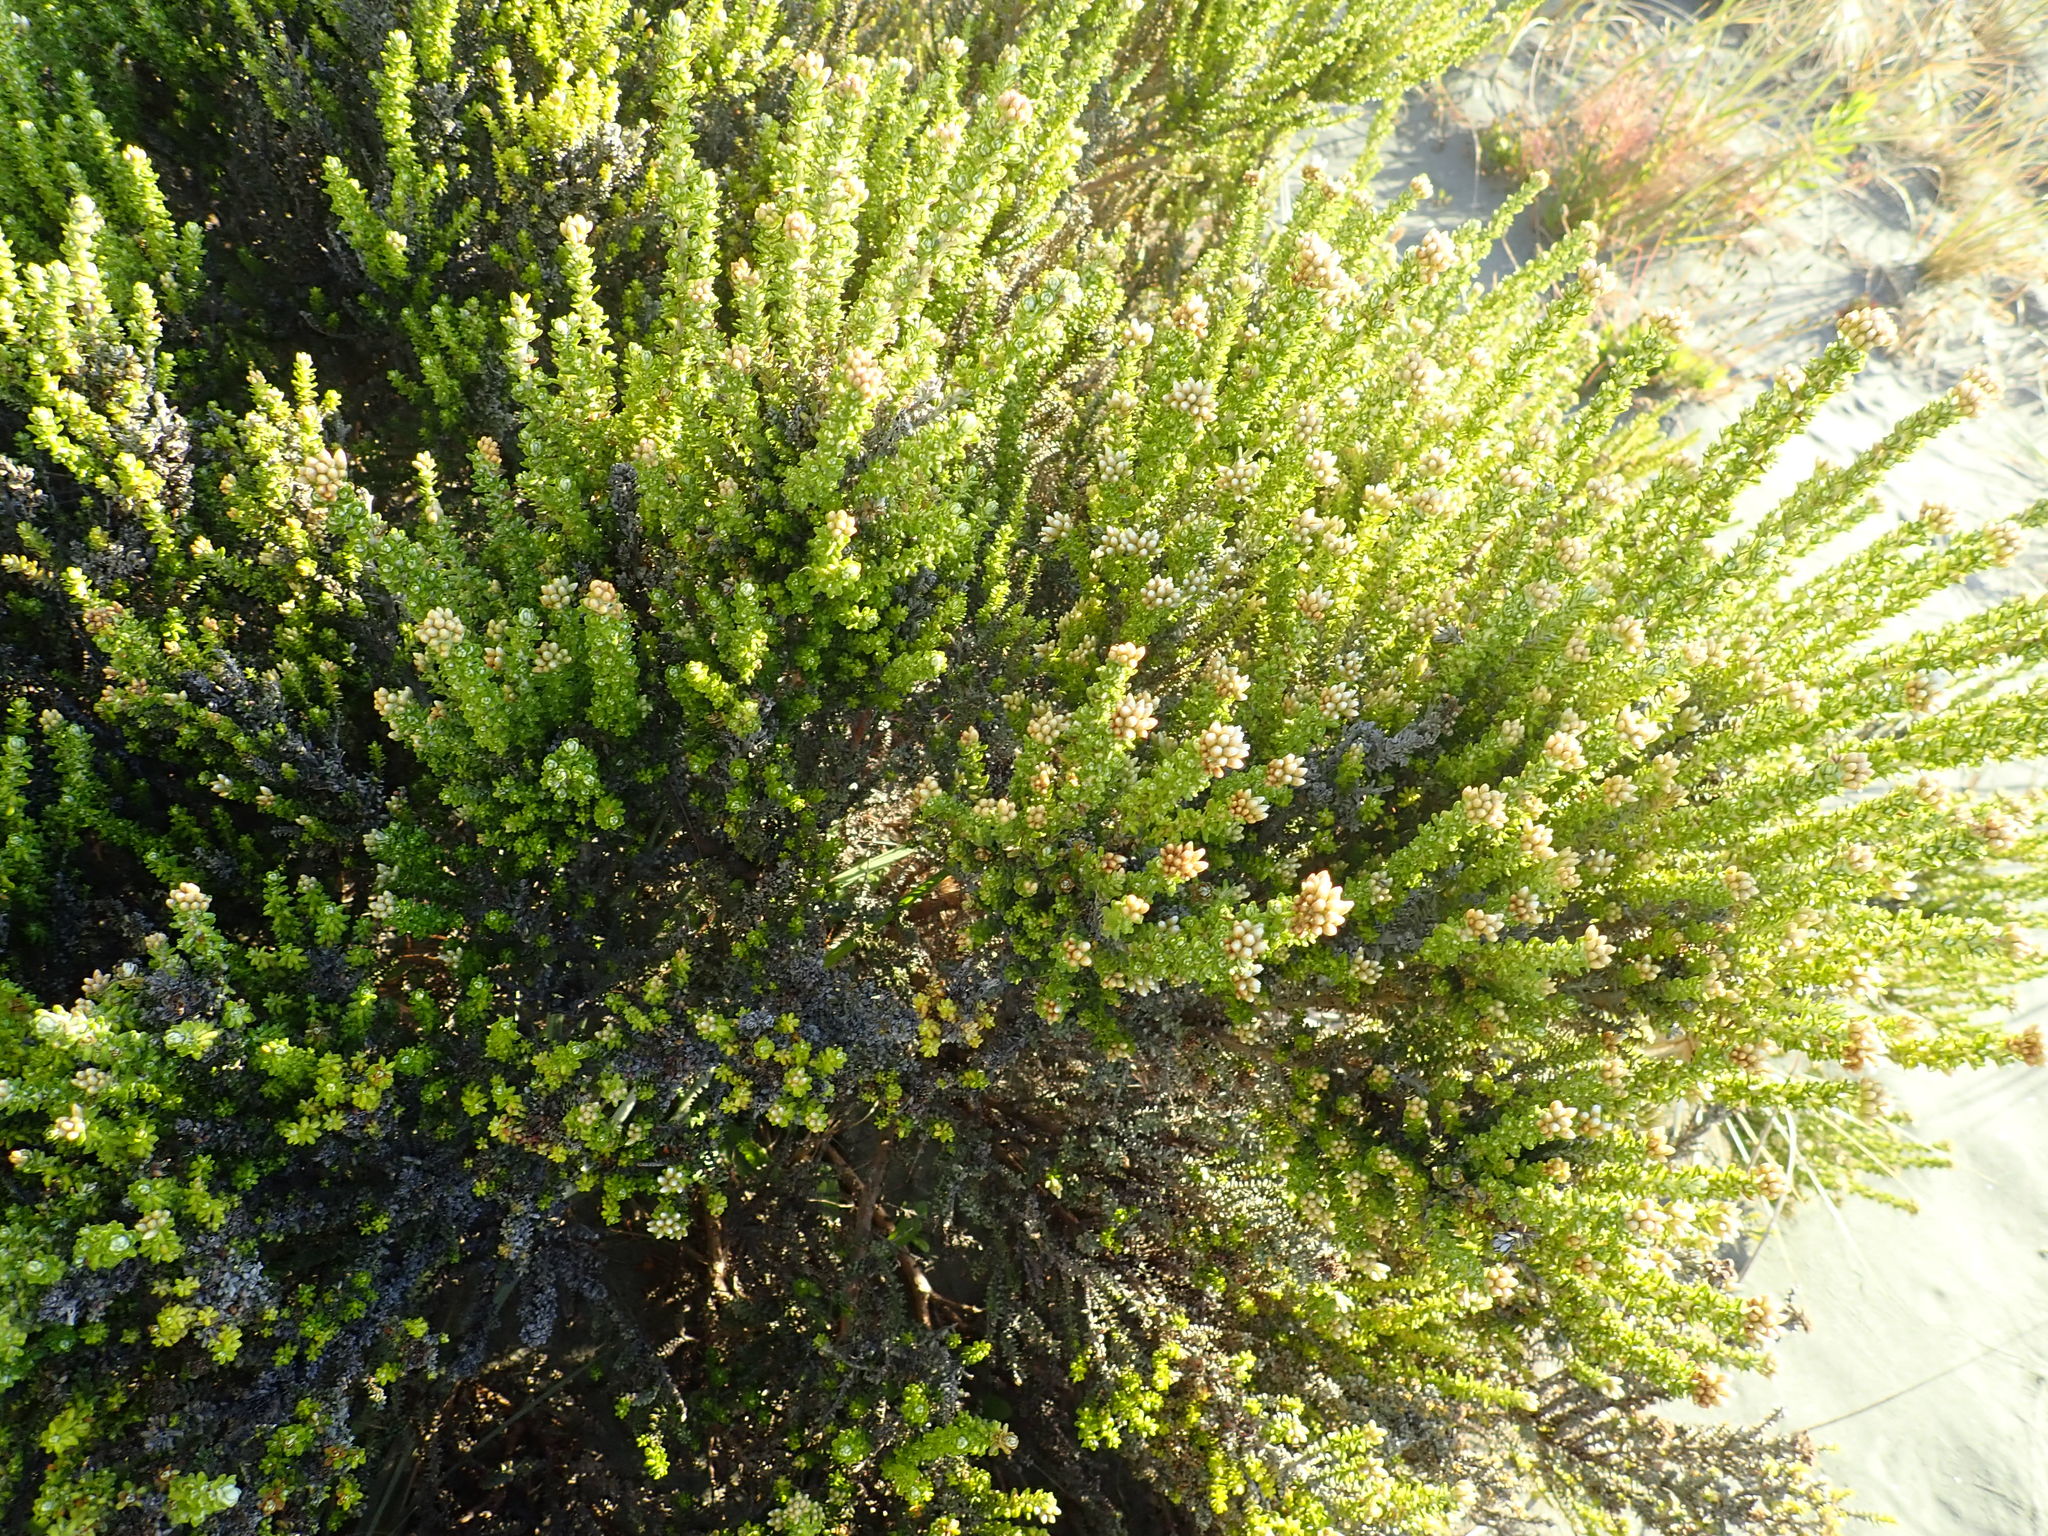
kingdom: Plantae
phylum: Tracheophyta
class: Magnoliopsida
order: Asterales
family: Asteraceae
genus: Ozothamnus
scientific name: Ozothamnus leptophyllus
